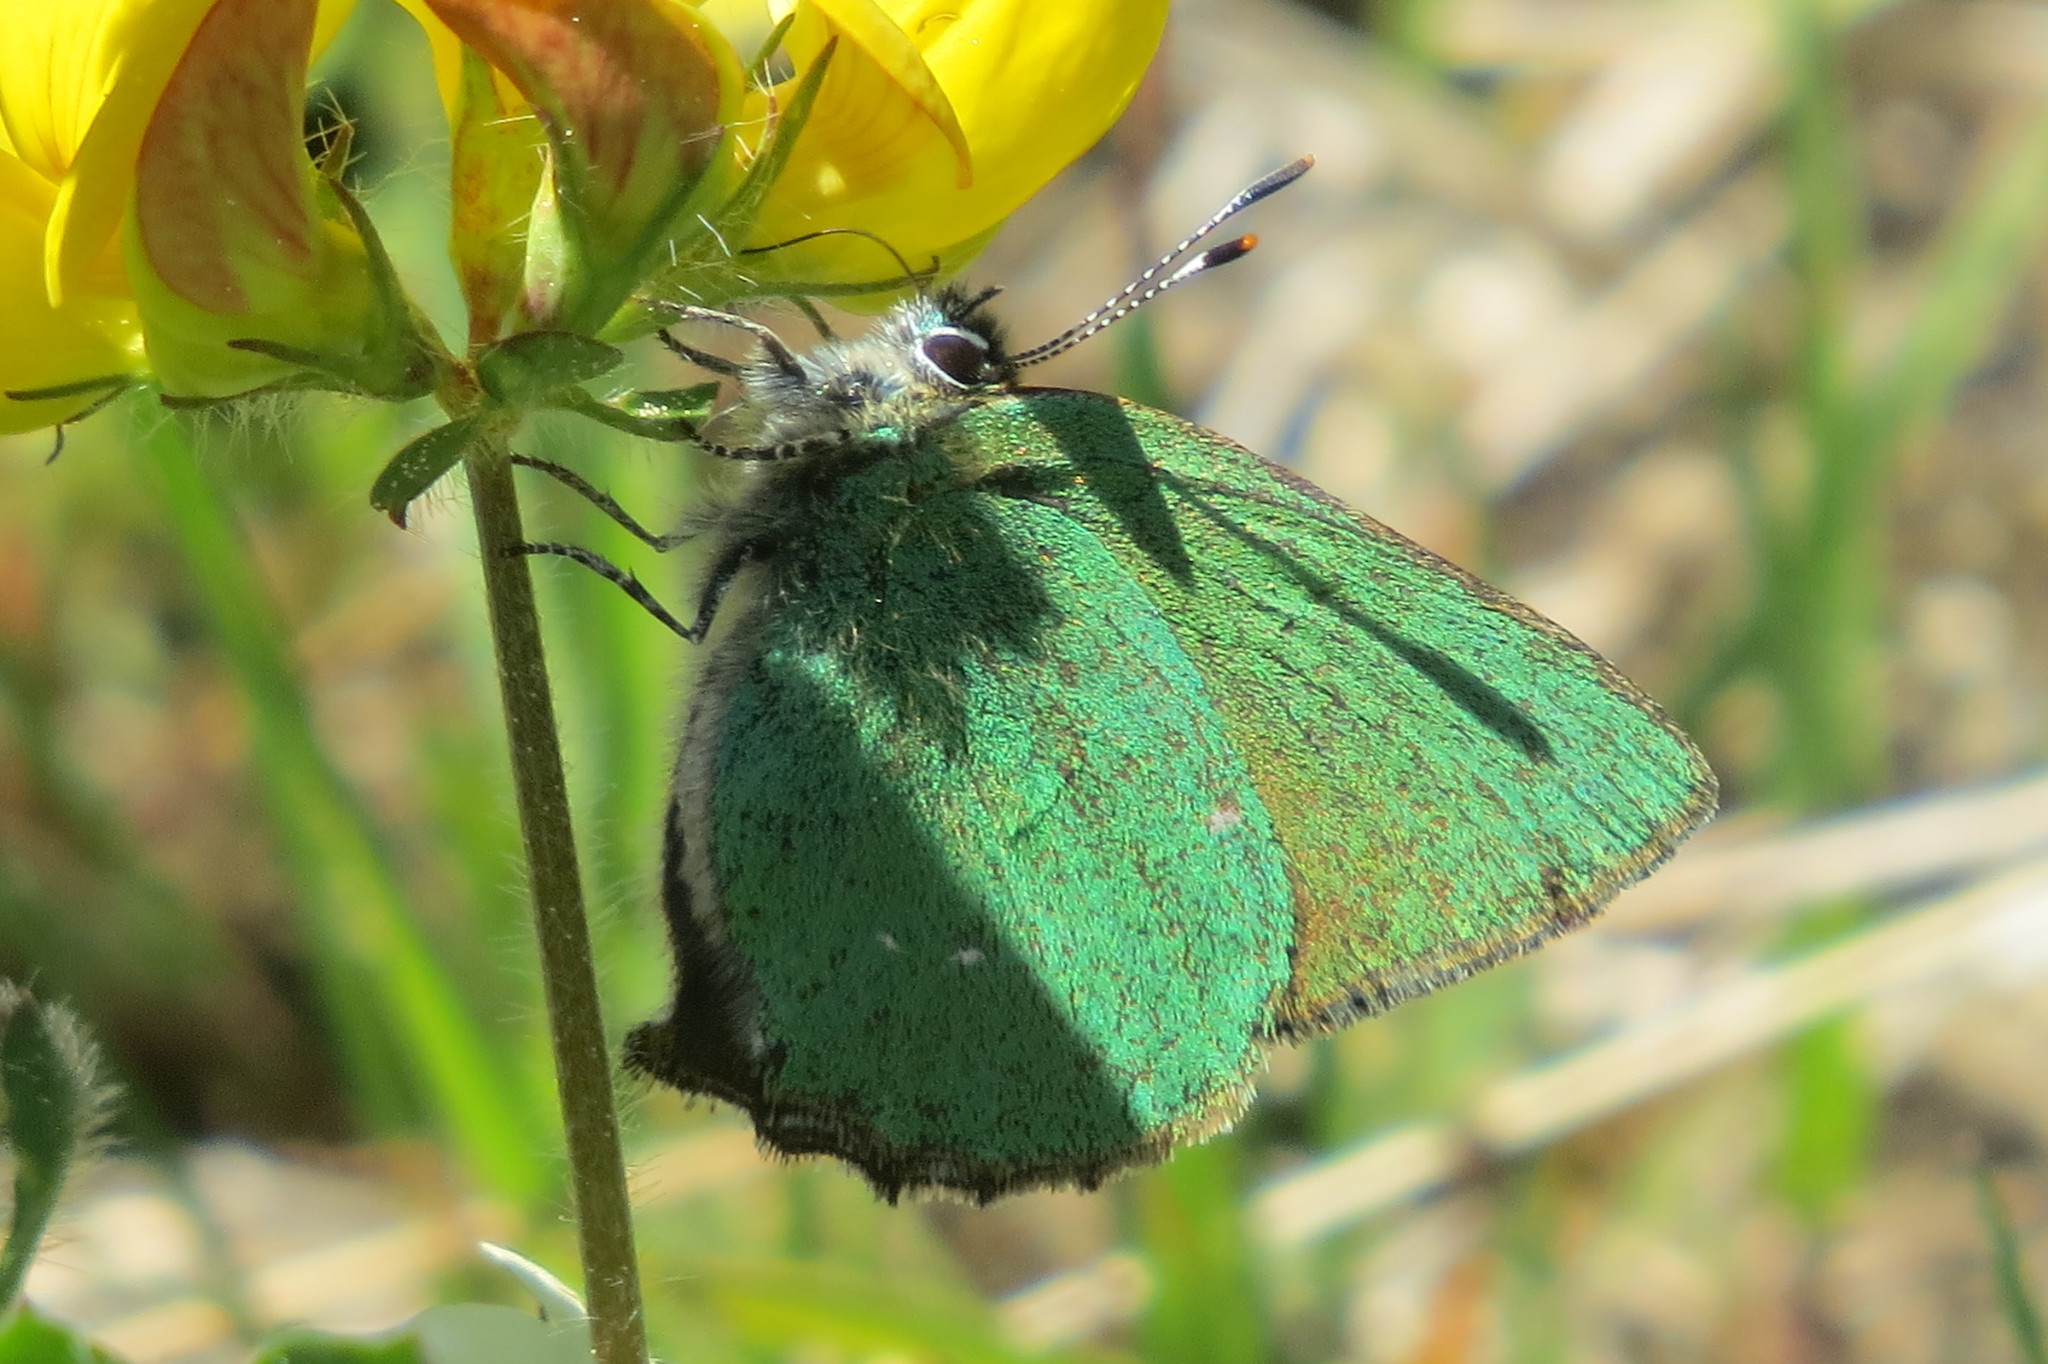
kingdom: Animalia
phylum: Arthropoda
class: Insecta
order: Lepidoptera
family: Lycaenidae
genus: Callophrys
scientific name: Callophrys rubi
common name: Green hairstreak
